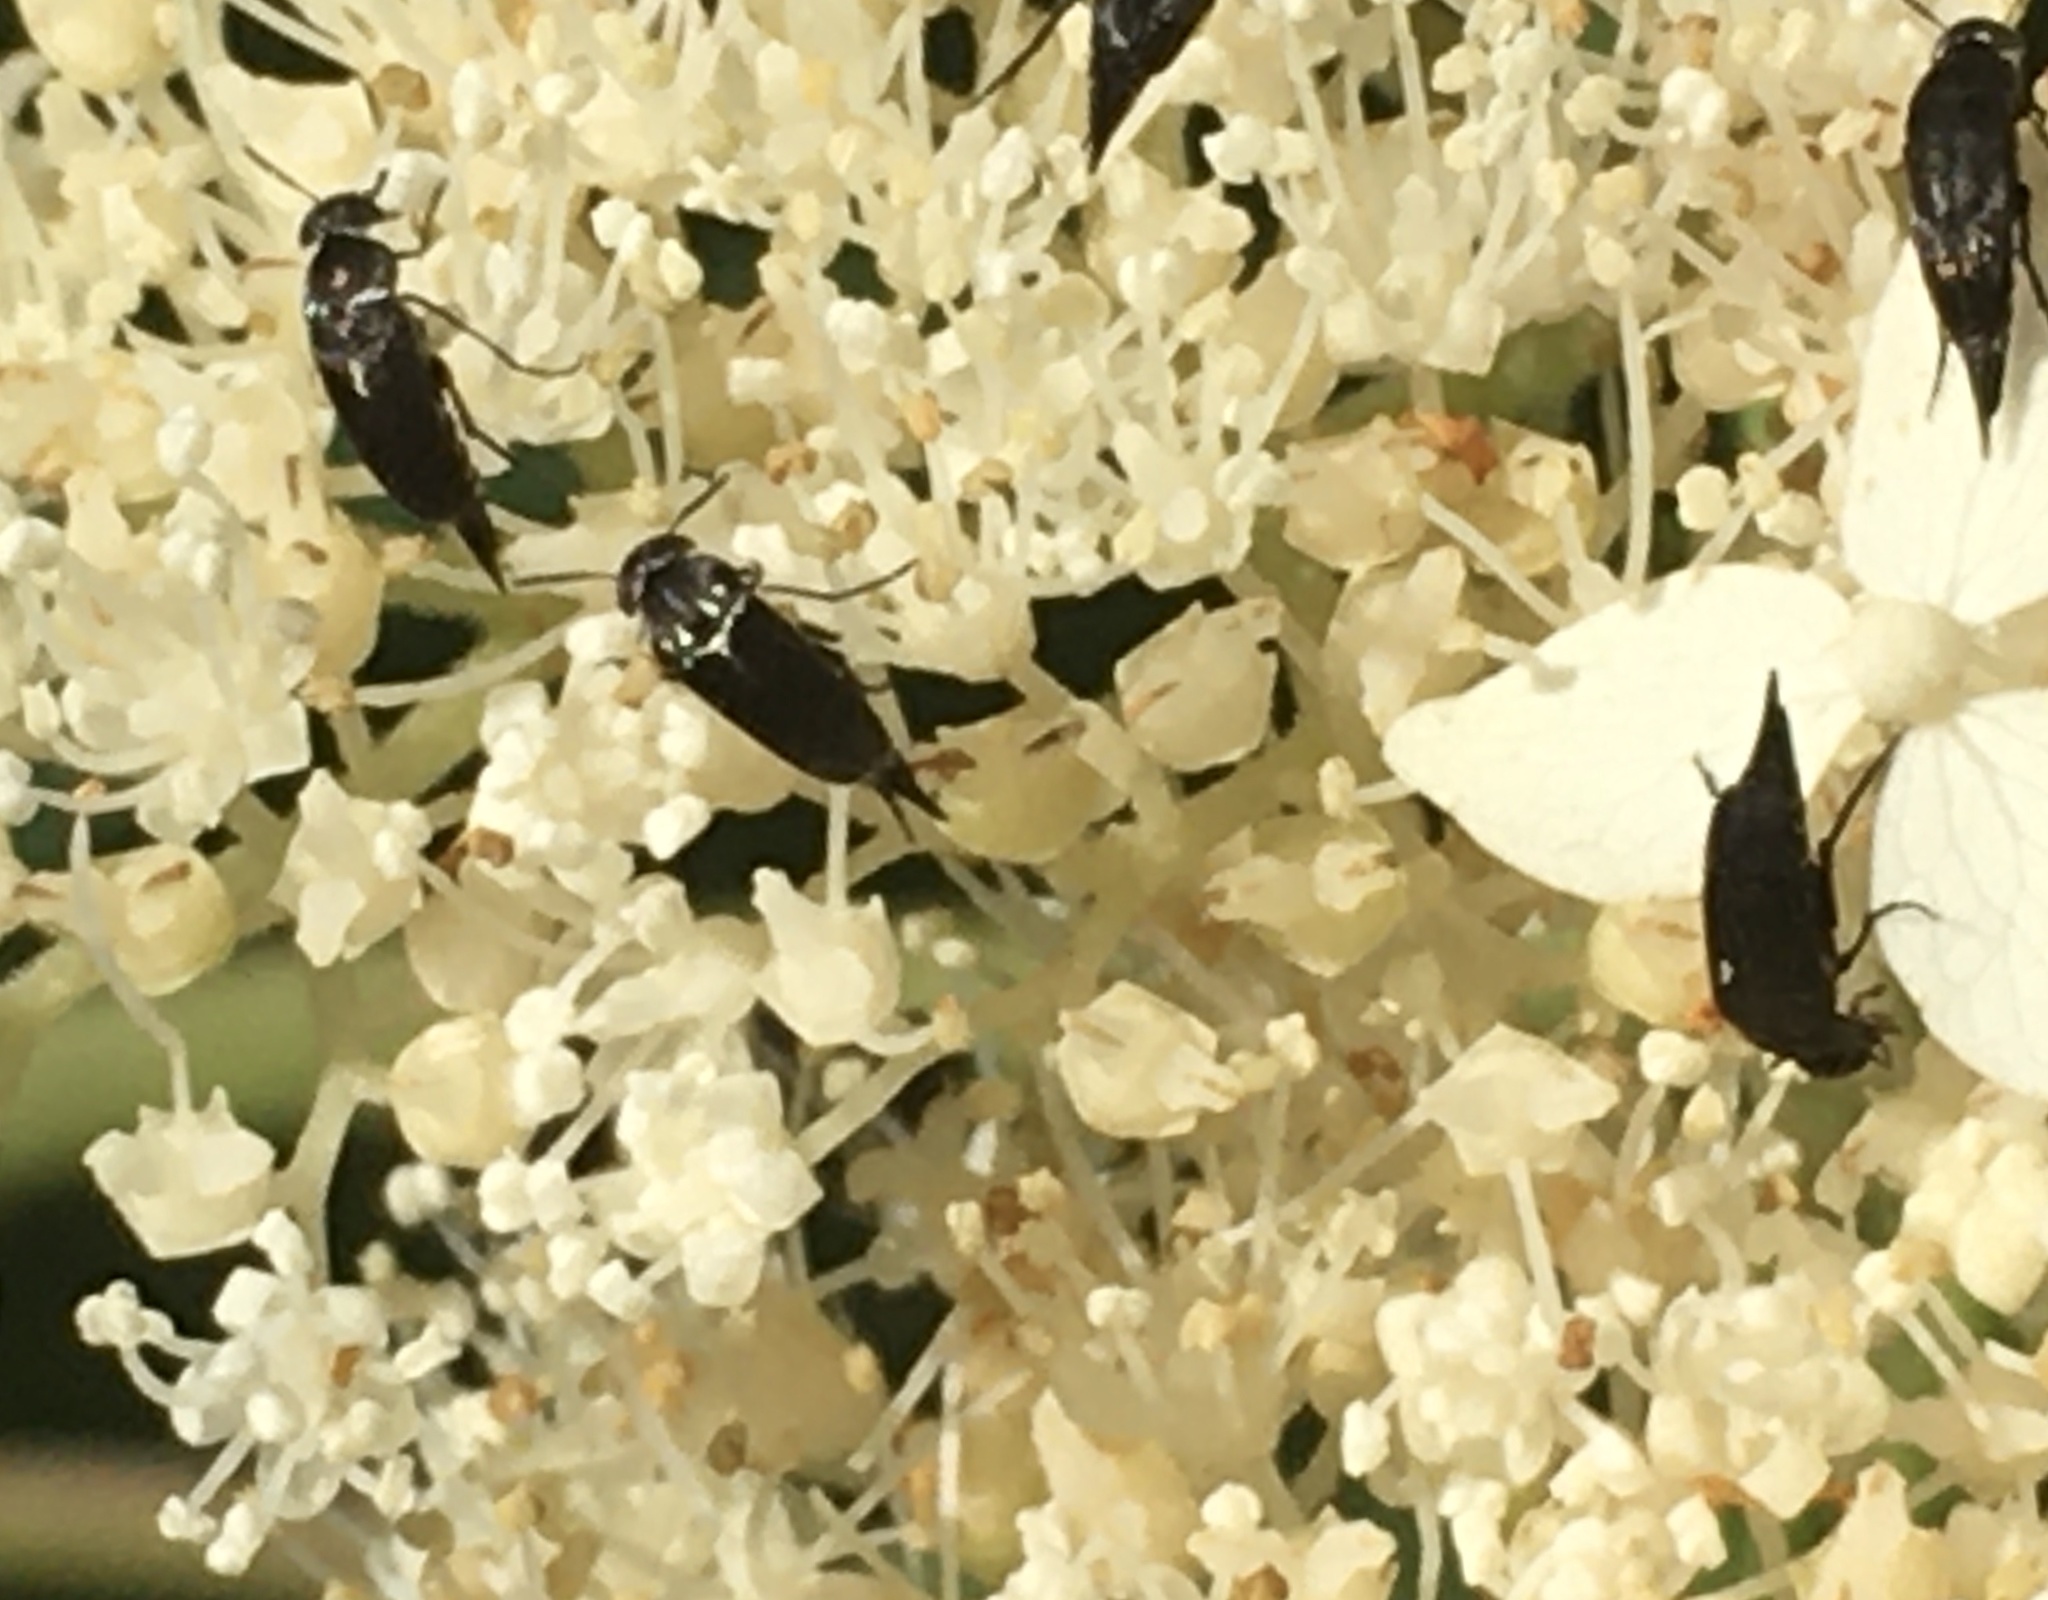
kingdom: Animalia
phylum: Arthropoda
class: Insecta
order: Coleoptera
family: Mordellidae
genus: Mordella
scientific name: Mordella marginata
